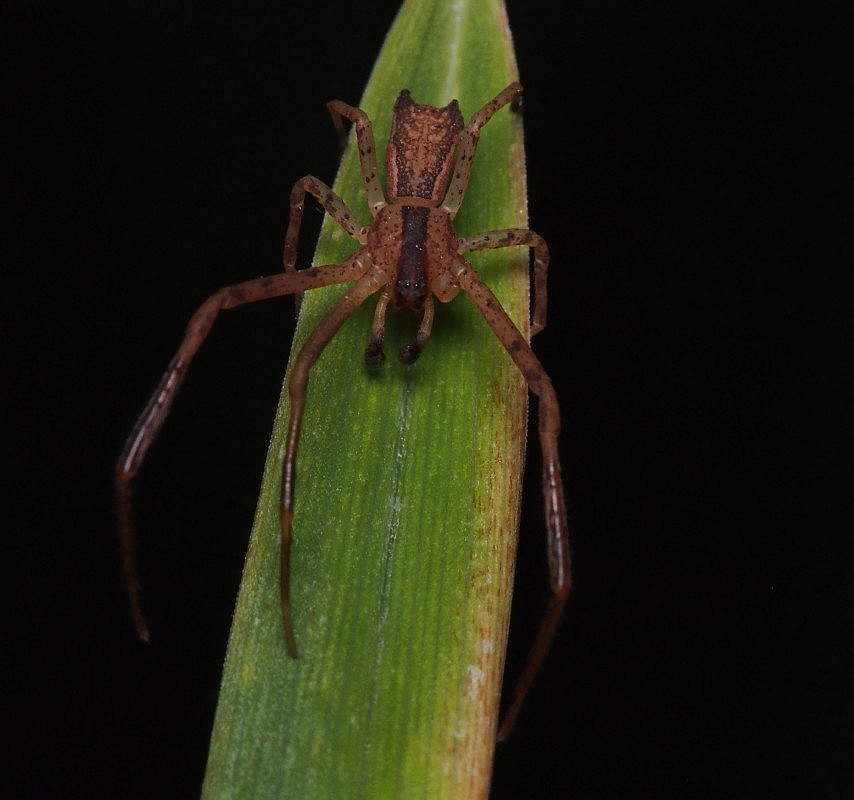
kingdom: Animalia
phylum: Arthropoda
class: Arachnida
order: Araneae
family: Thomisidae
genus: Sidymella
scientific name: Sidymella longipes
